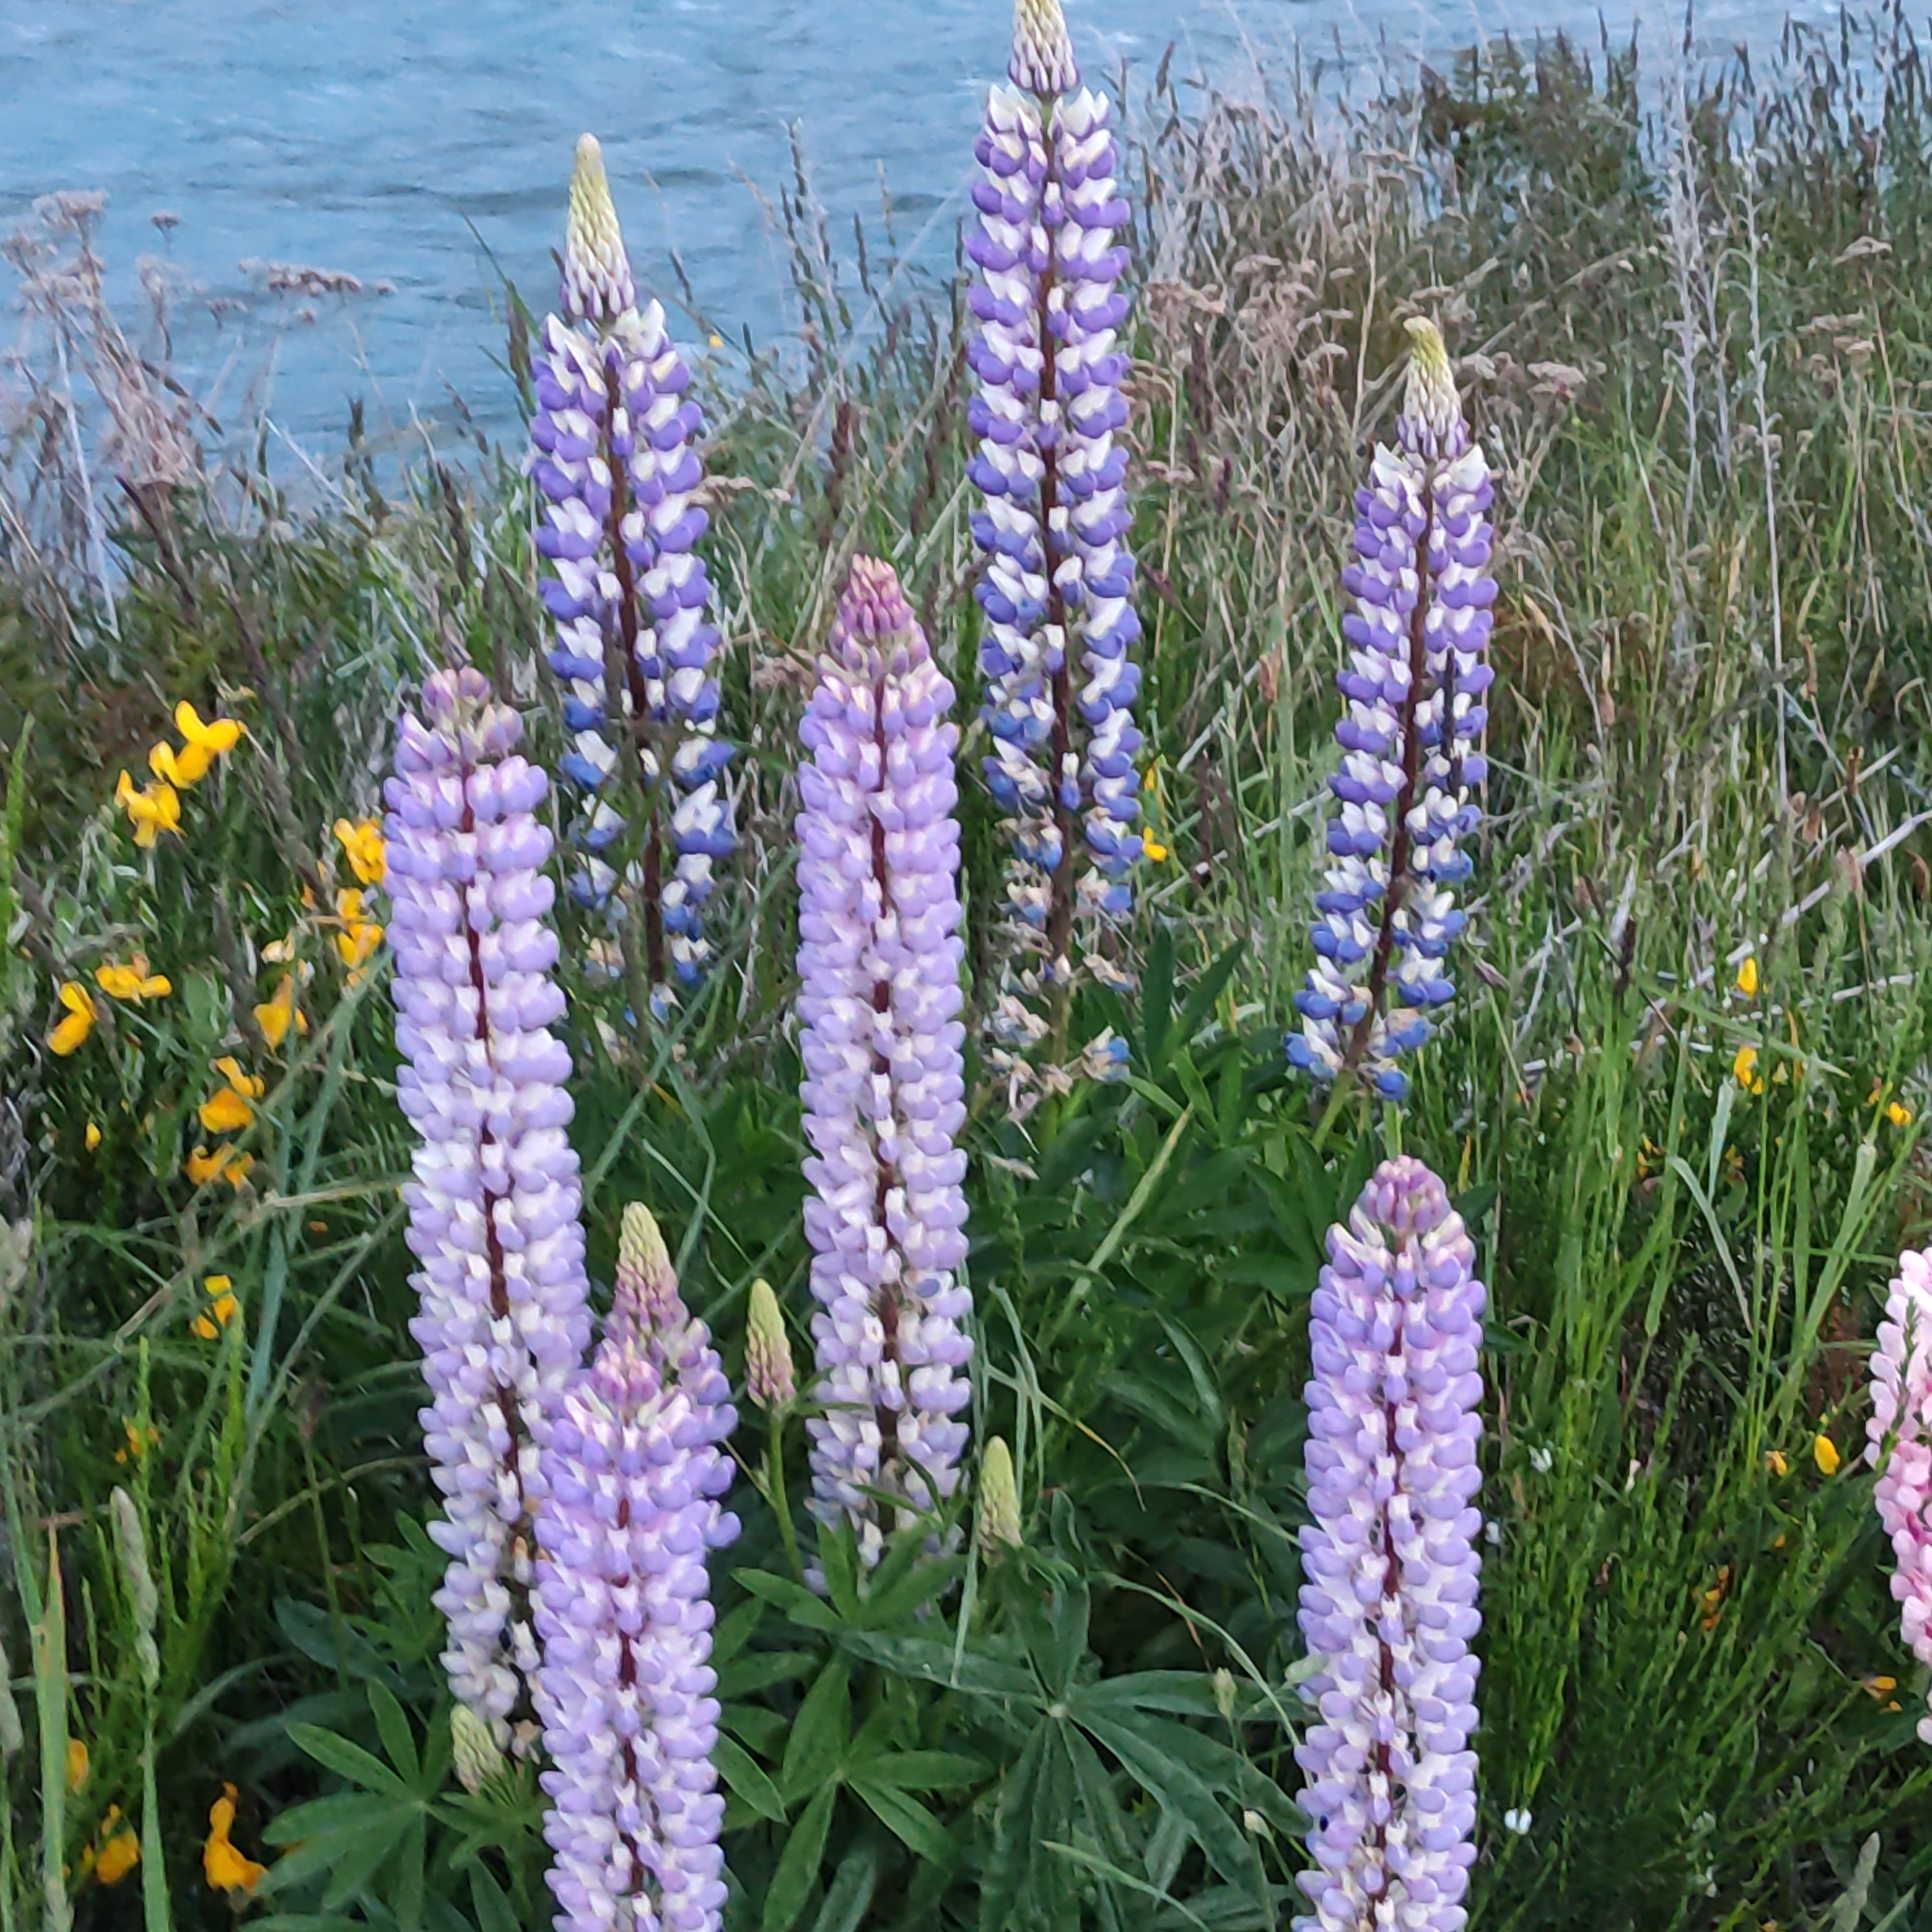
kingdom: Plantae
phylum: Tracheophyta
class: Magnoliopsida
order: Fabales
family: Fabaceae
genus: Lupinus
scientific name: Lupinus polyphyllus
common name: Garden lupin
